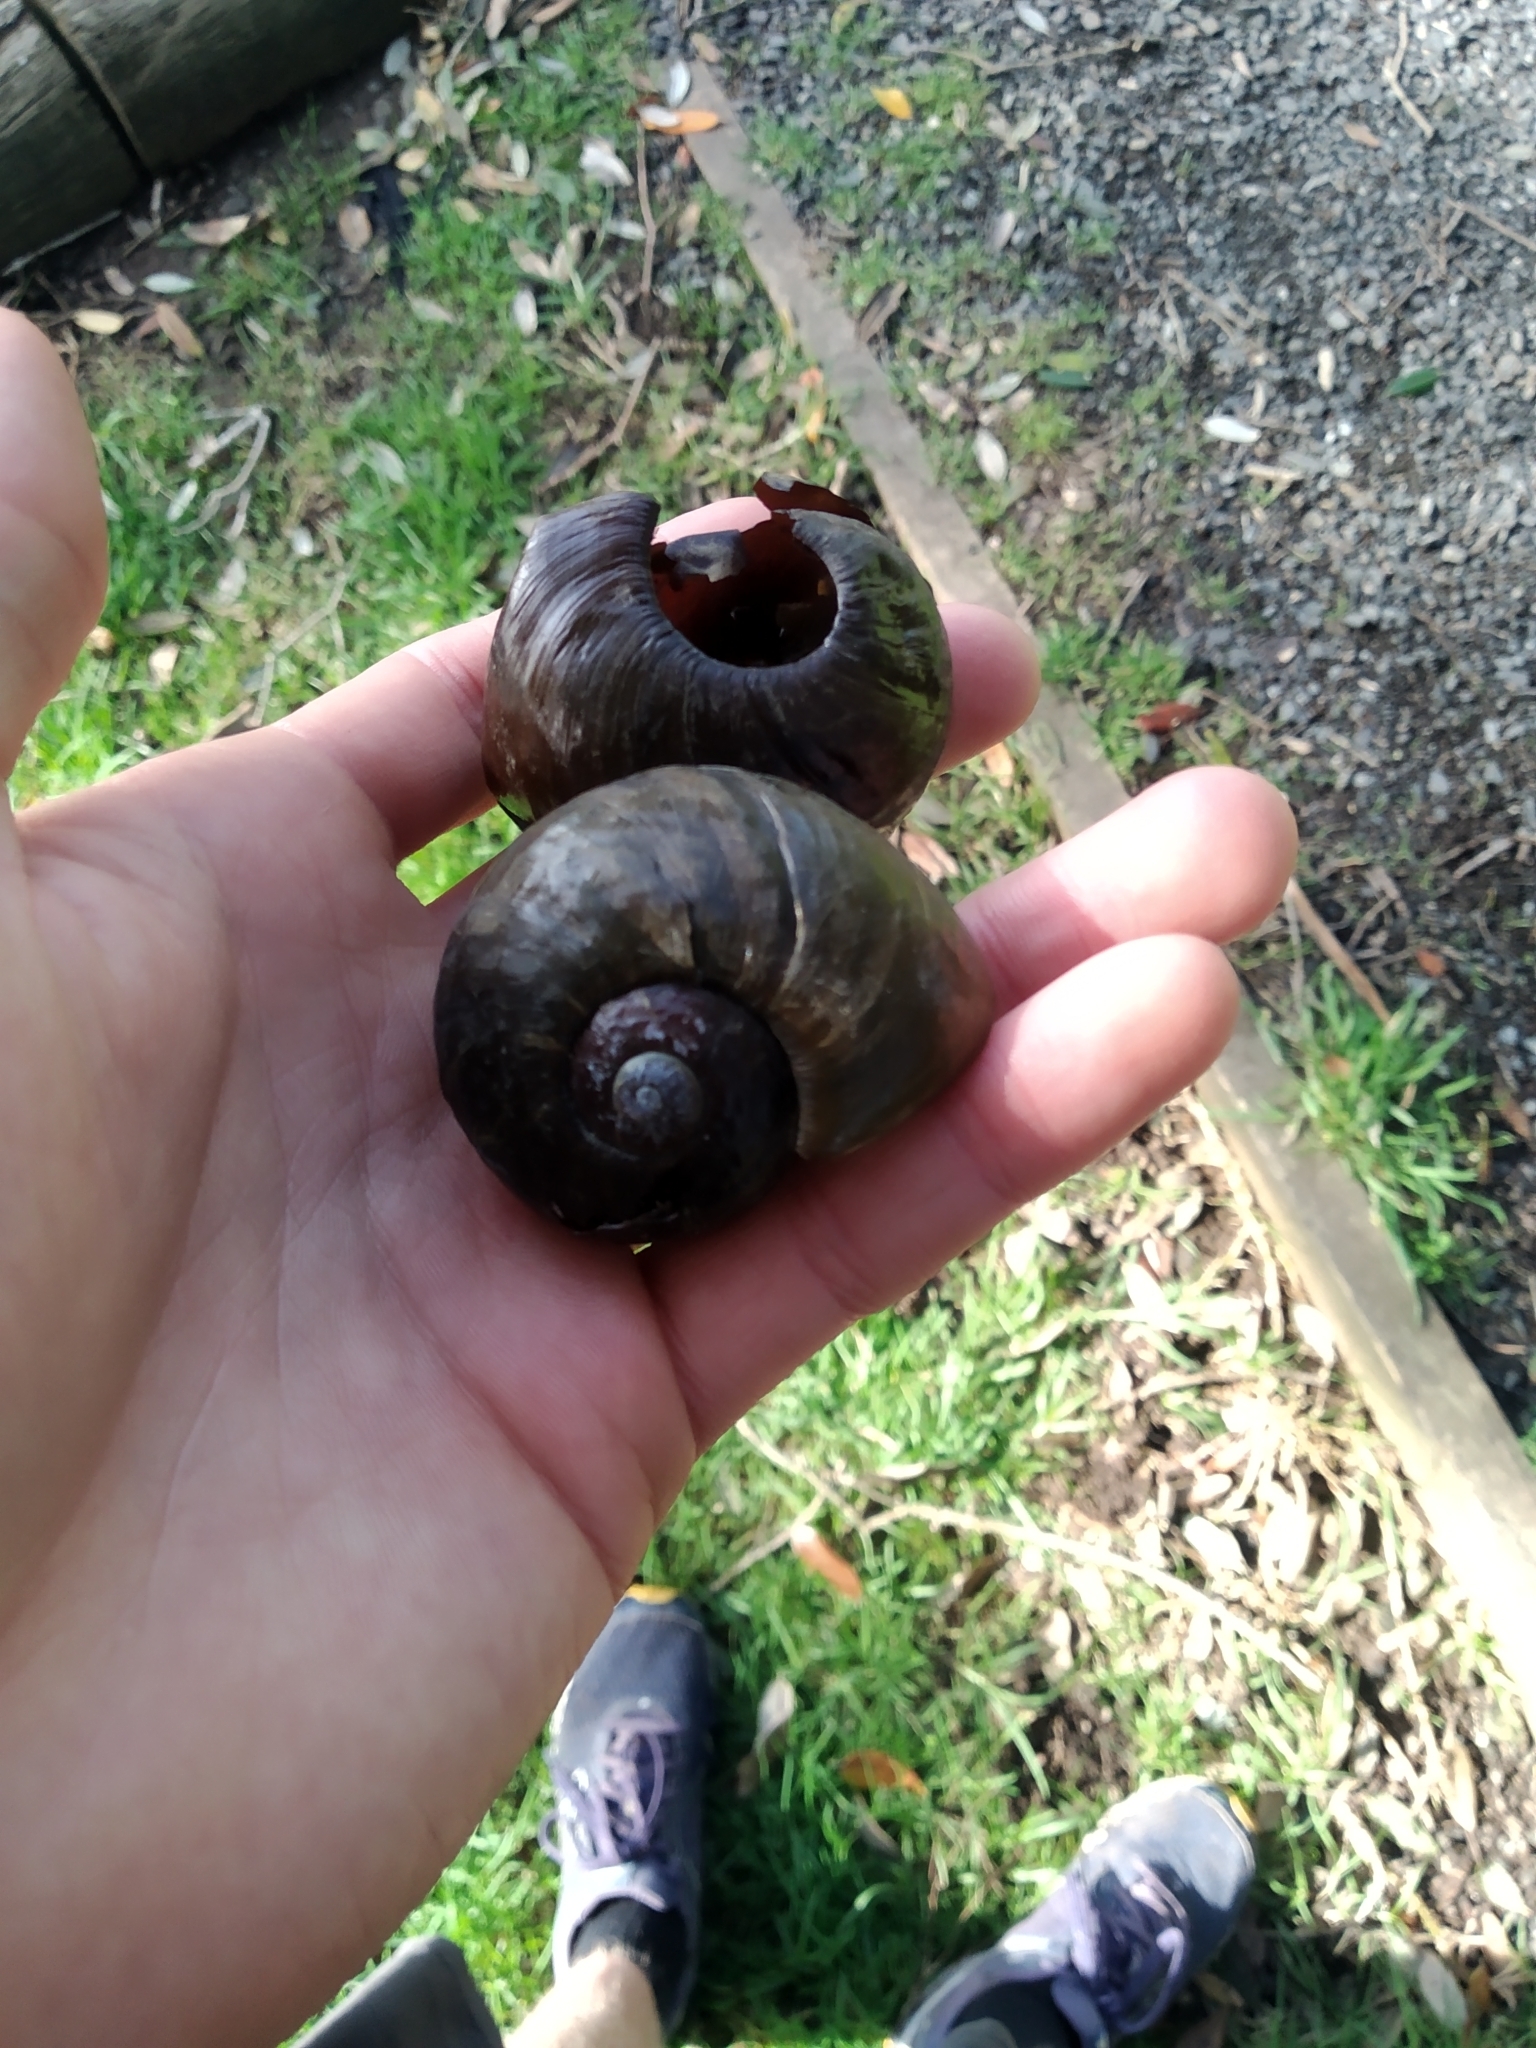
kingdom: Animalia
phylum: Mollusca
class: Gastropoda
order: Stylommatophora
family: Rhytididae
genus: Paryphanta
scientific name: Paryphanta busbyi
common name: Kauri snail
